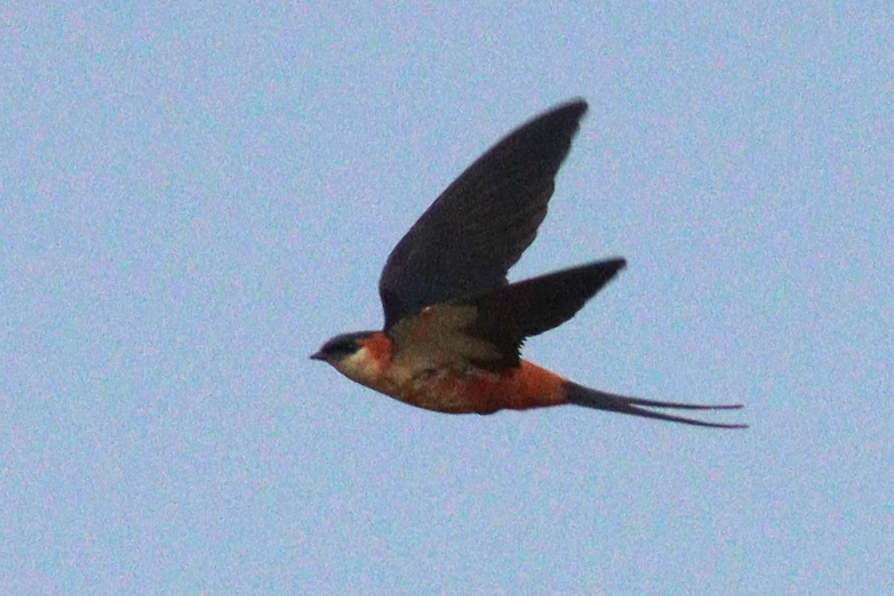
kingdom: Animalia
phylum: Chordata
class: Aves
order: Passeriformes
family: Hirundinidae
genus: Cecropis
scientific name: Cecropis senegalensis
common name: Mosque swallow
